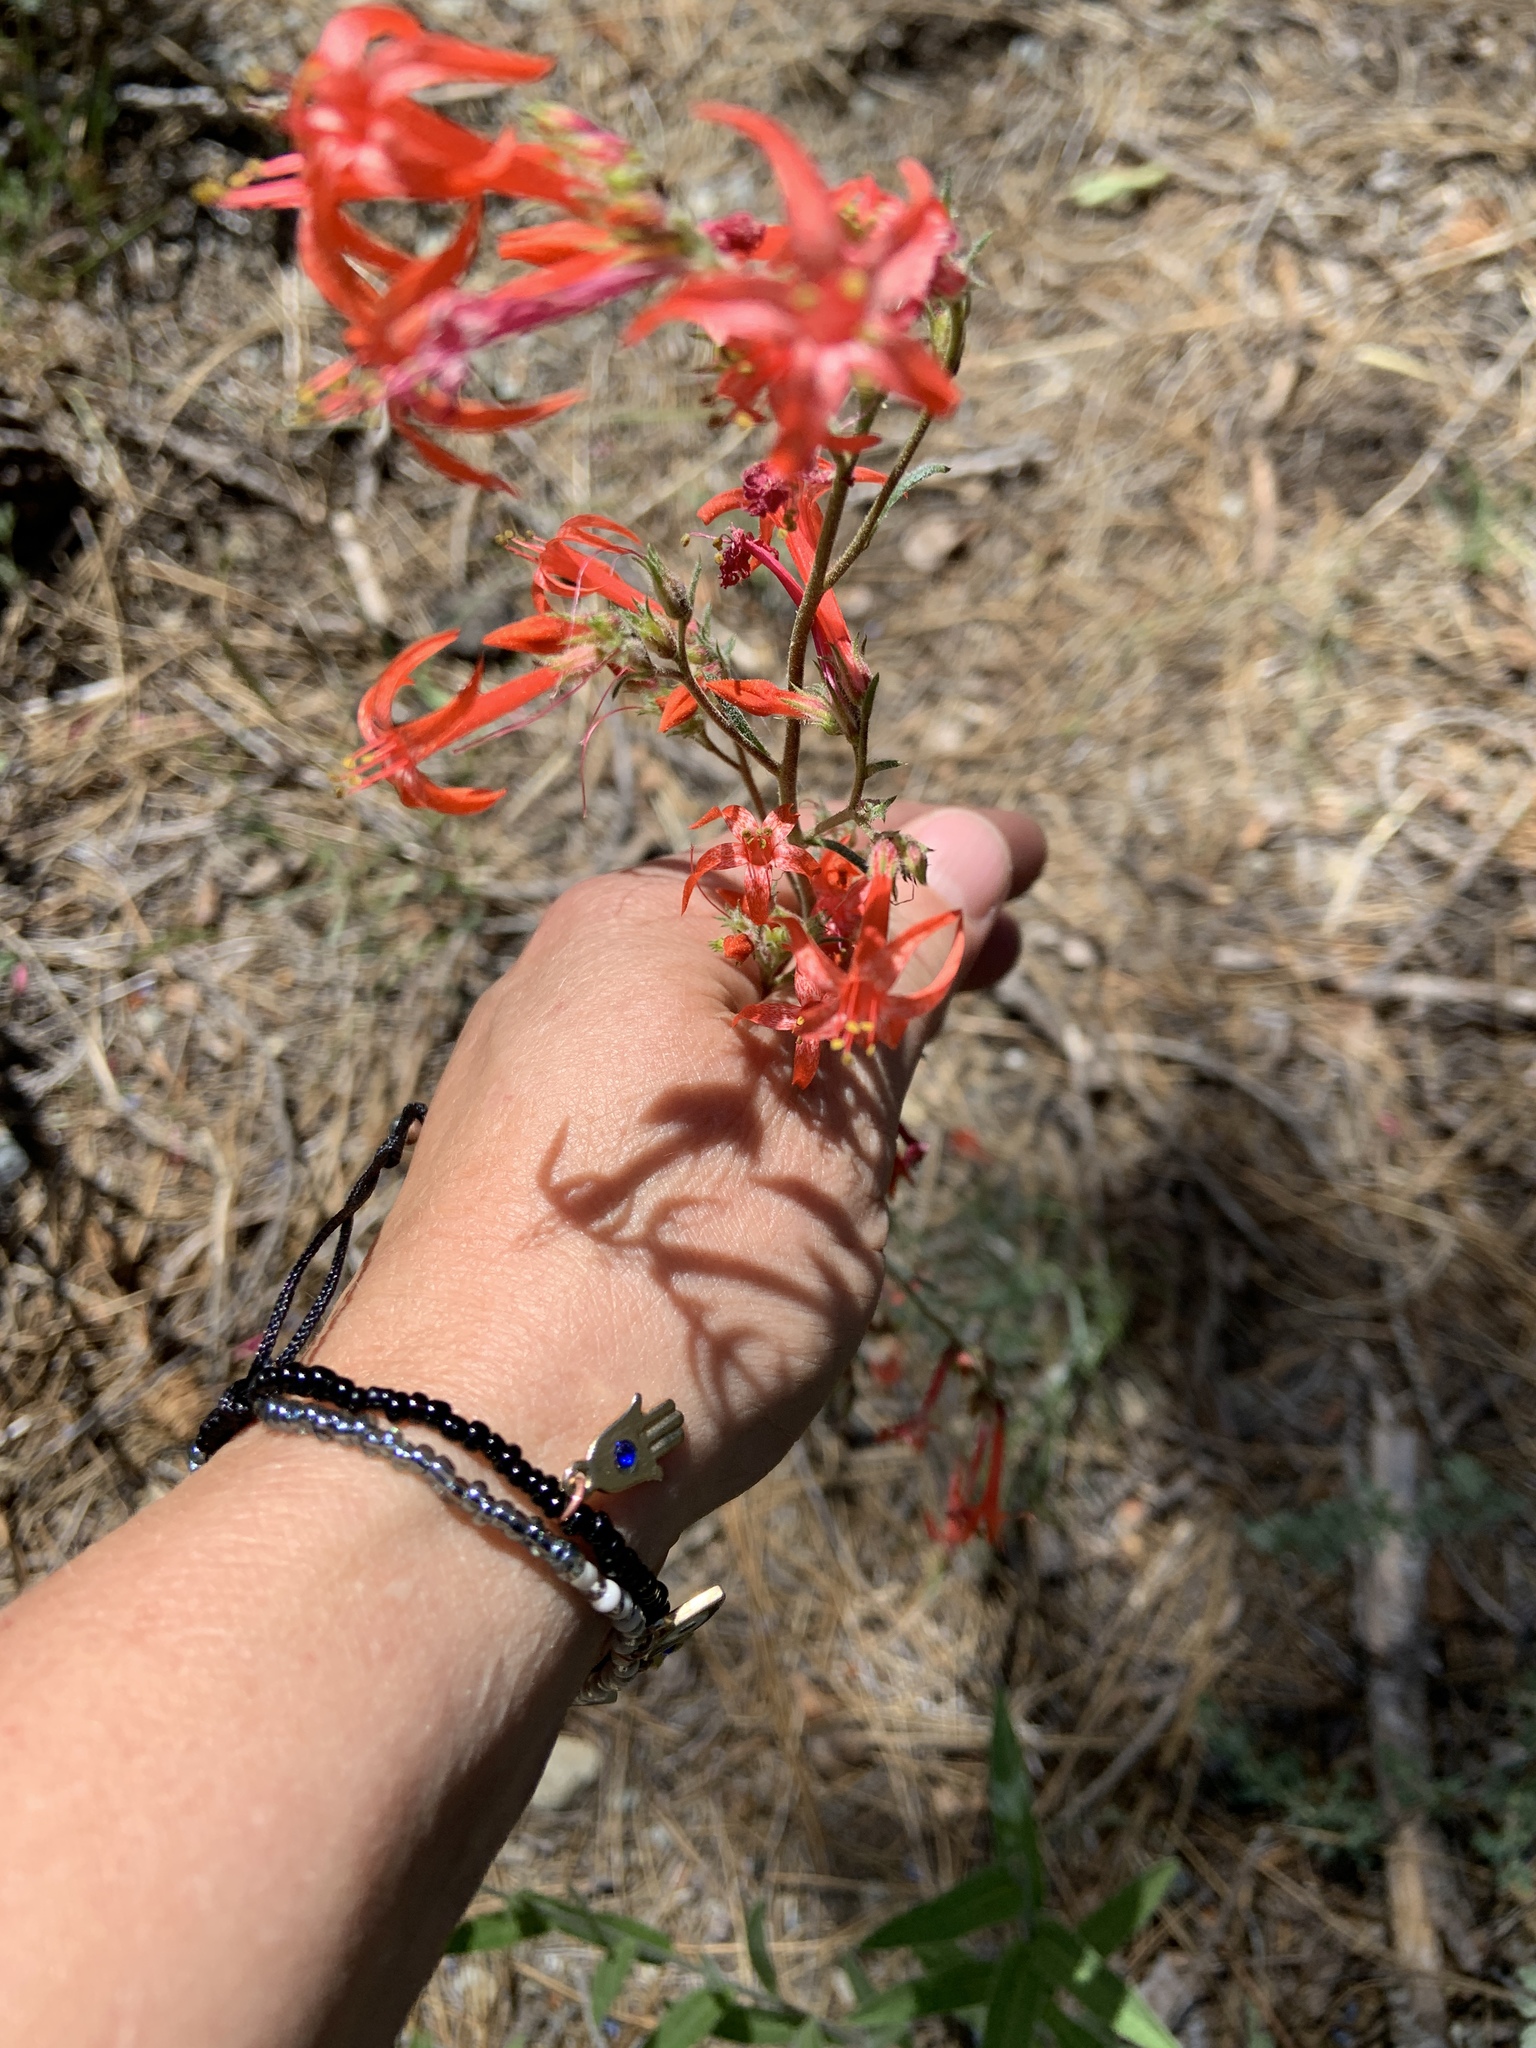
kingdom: Plantae
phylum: Tracheophyta
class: Magnoliopsida
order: Ericales
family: Polemoniaceae
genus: Ipomopsis
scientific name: Ipomopsis aggregata
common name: Scarlet gilia
